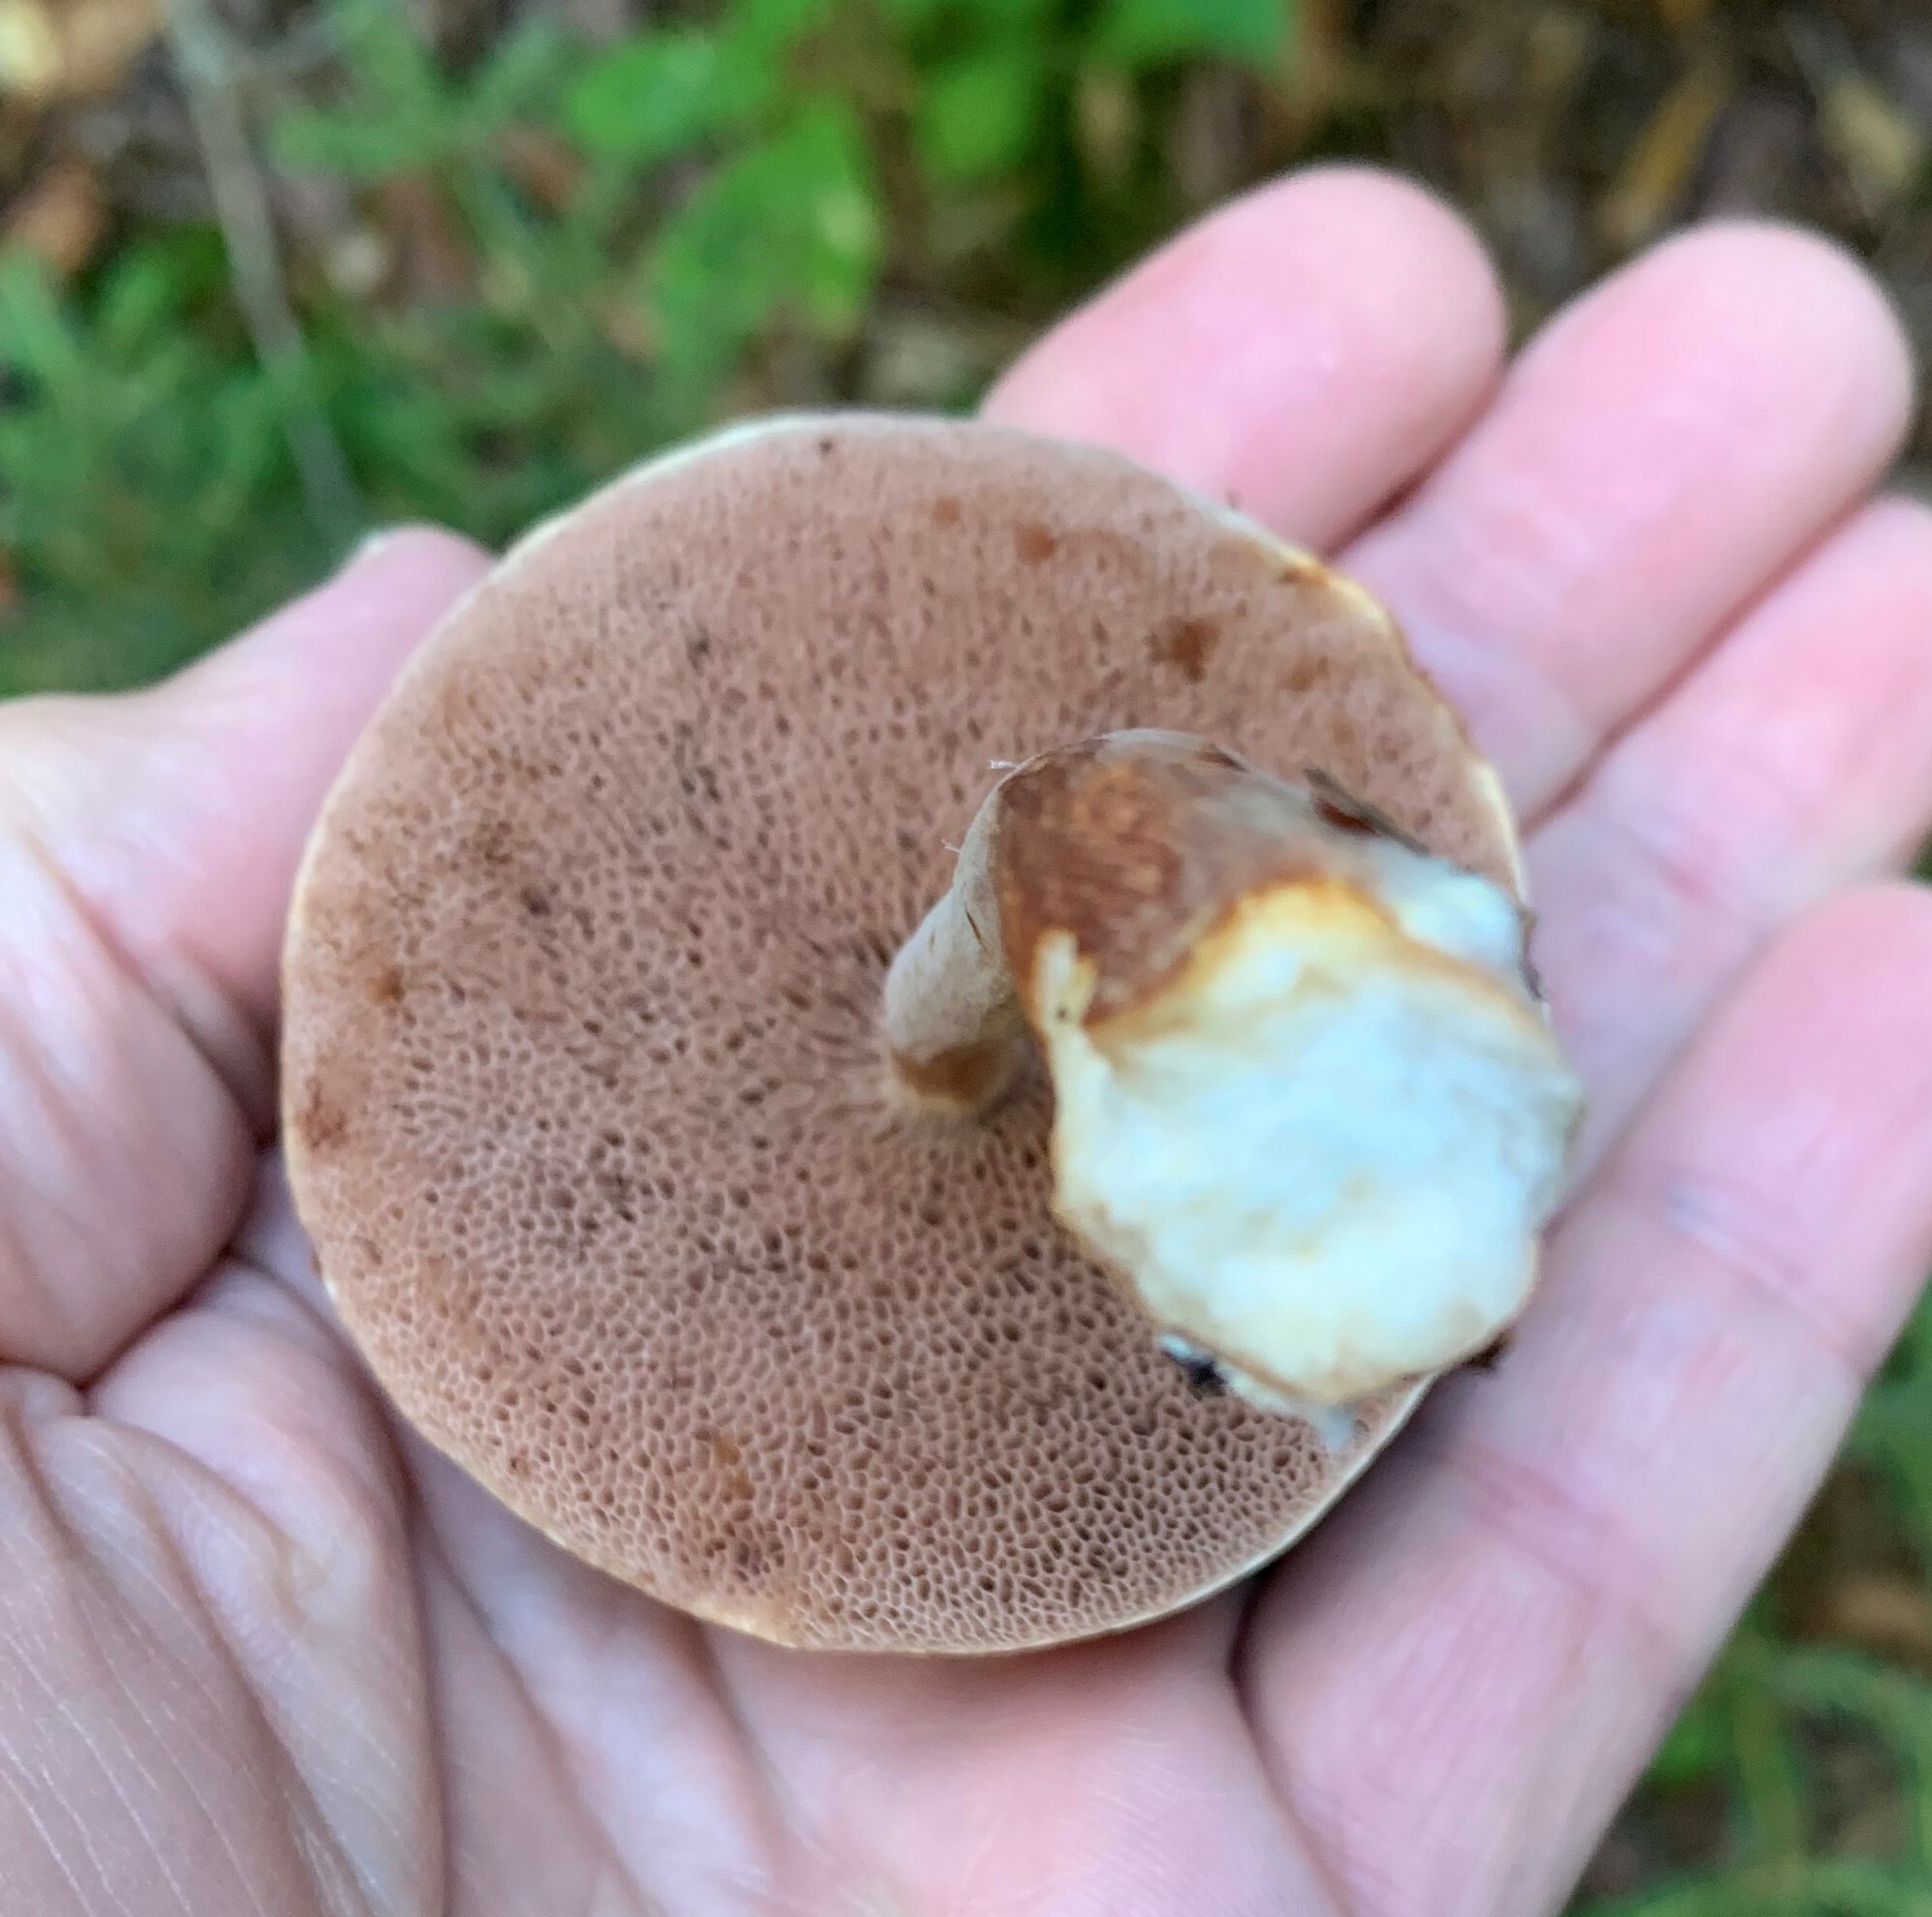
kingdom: Fungi
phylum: Basidiomycota
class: Agaricomycetes
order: Boletales
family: Boletaceae
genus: Austroboletus
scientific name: Austroboletus gracilis
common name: Graceful bolete
